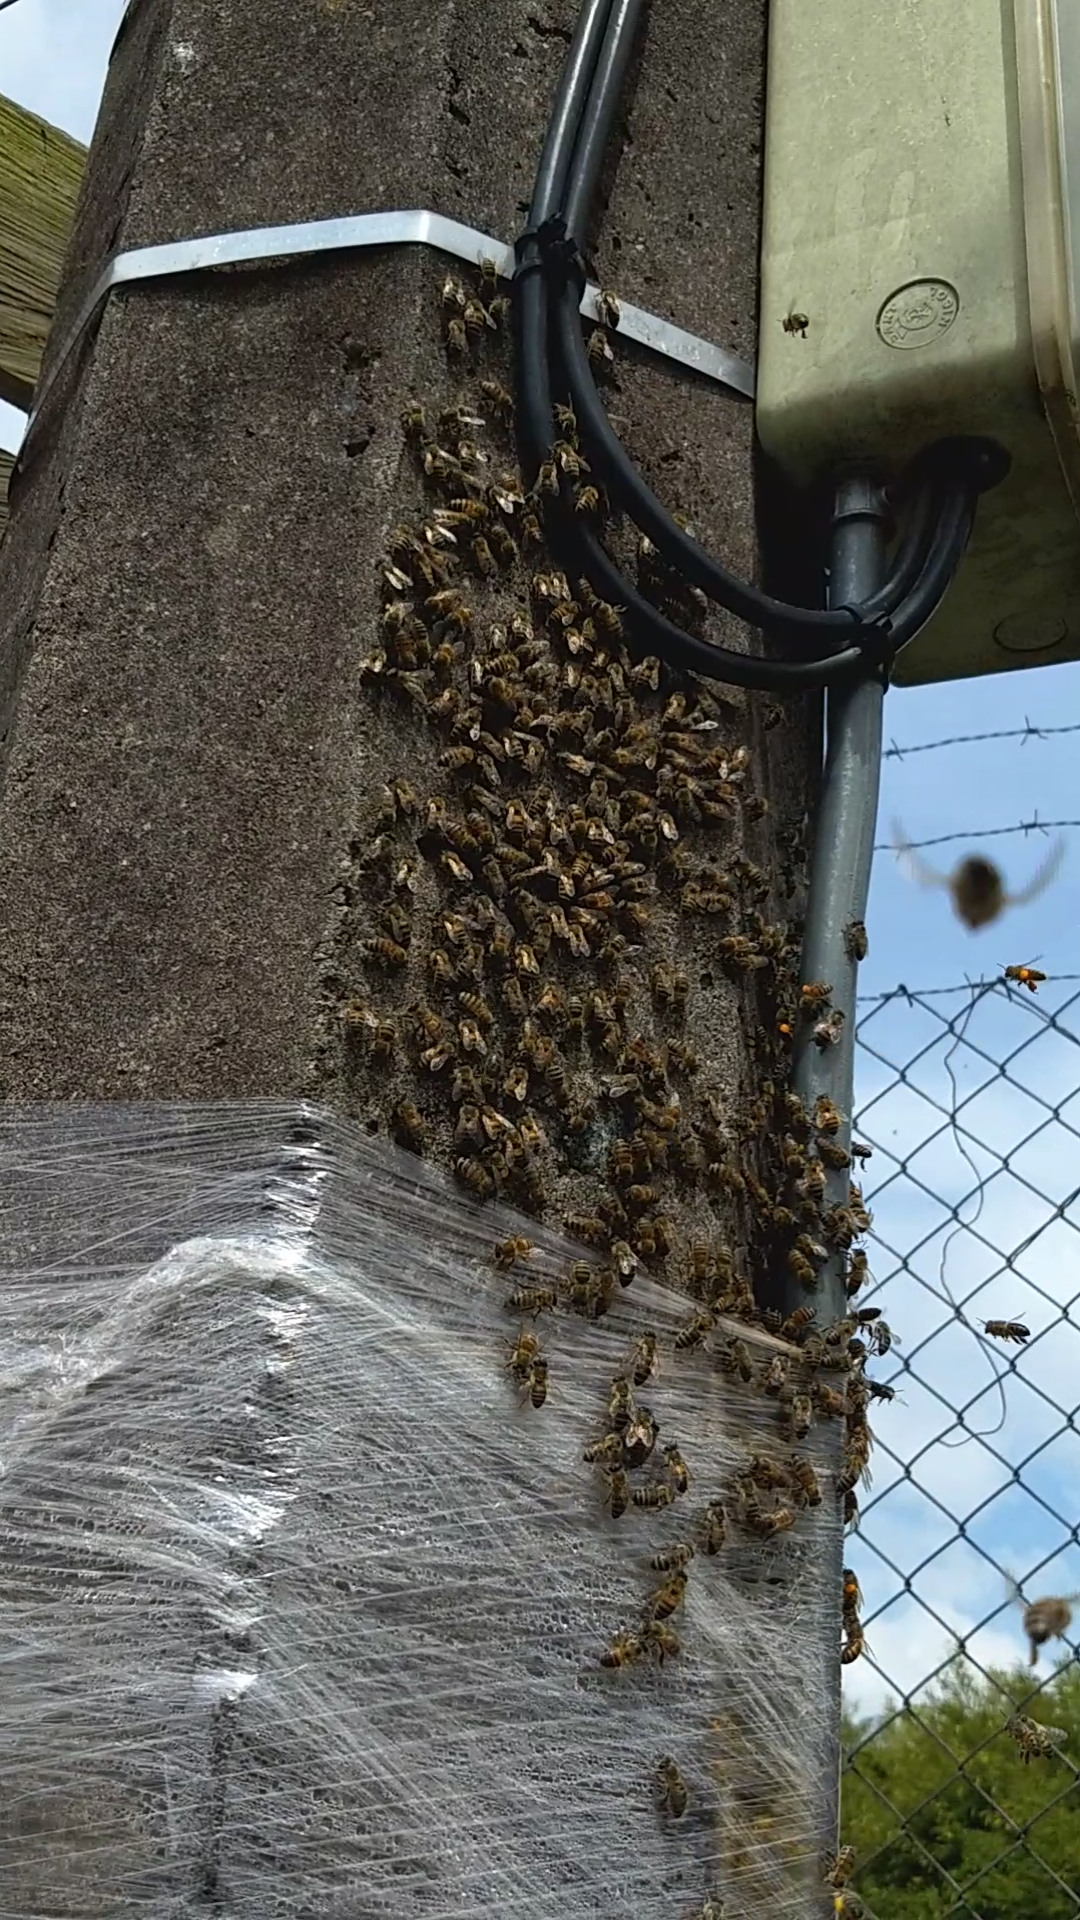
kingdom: Animalia
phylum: Arthropoda
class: Insecta
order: Hymenoptera
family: Apidae
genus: Apis
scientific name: Apis mellifera
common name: Honey bee
